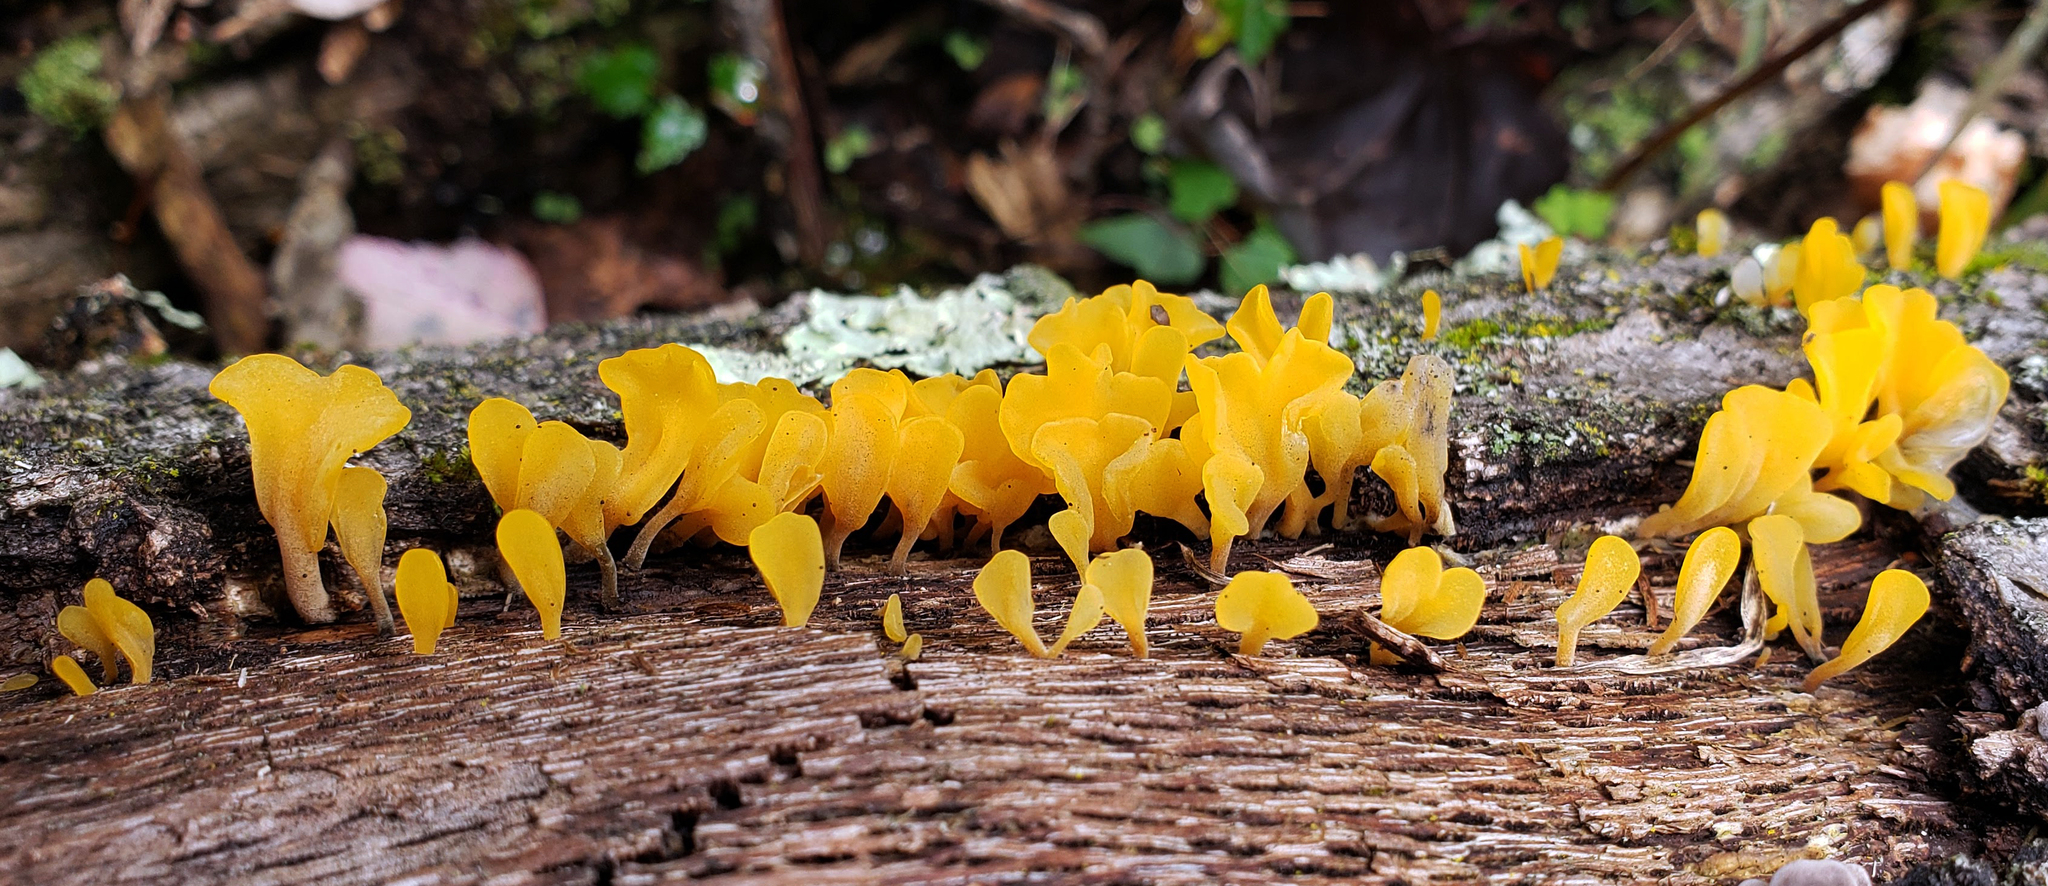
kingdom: Fungi
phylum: Basidiomycota
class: Dacrymycetes
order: Dacrymycetales
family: Dacrymycetaceae
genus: Dacrymyces
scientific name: Dacrymyces spathularius
